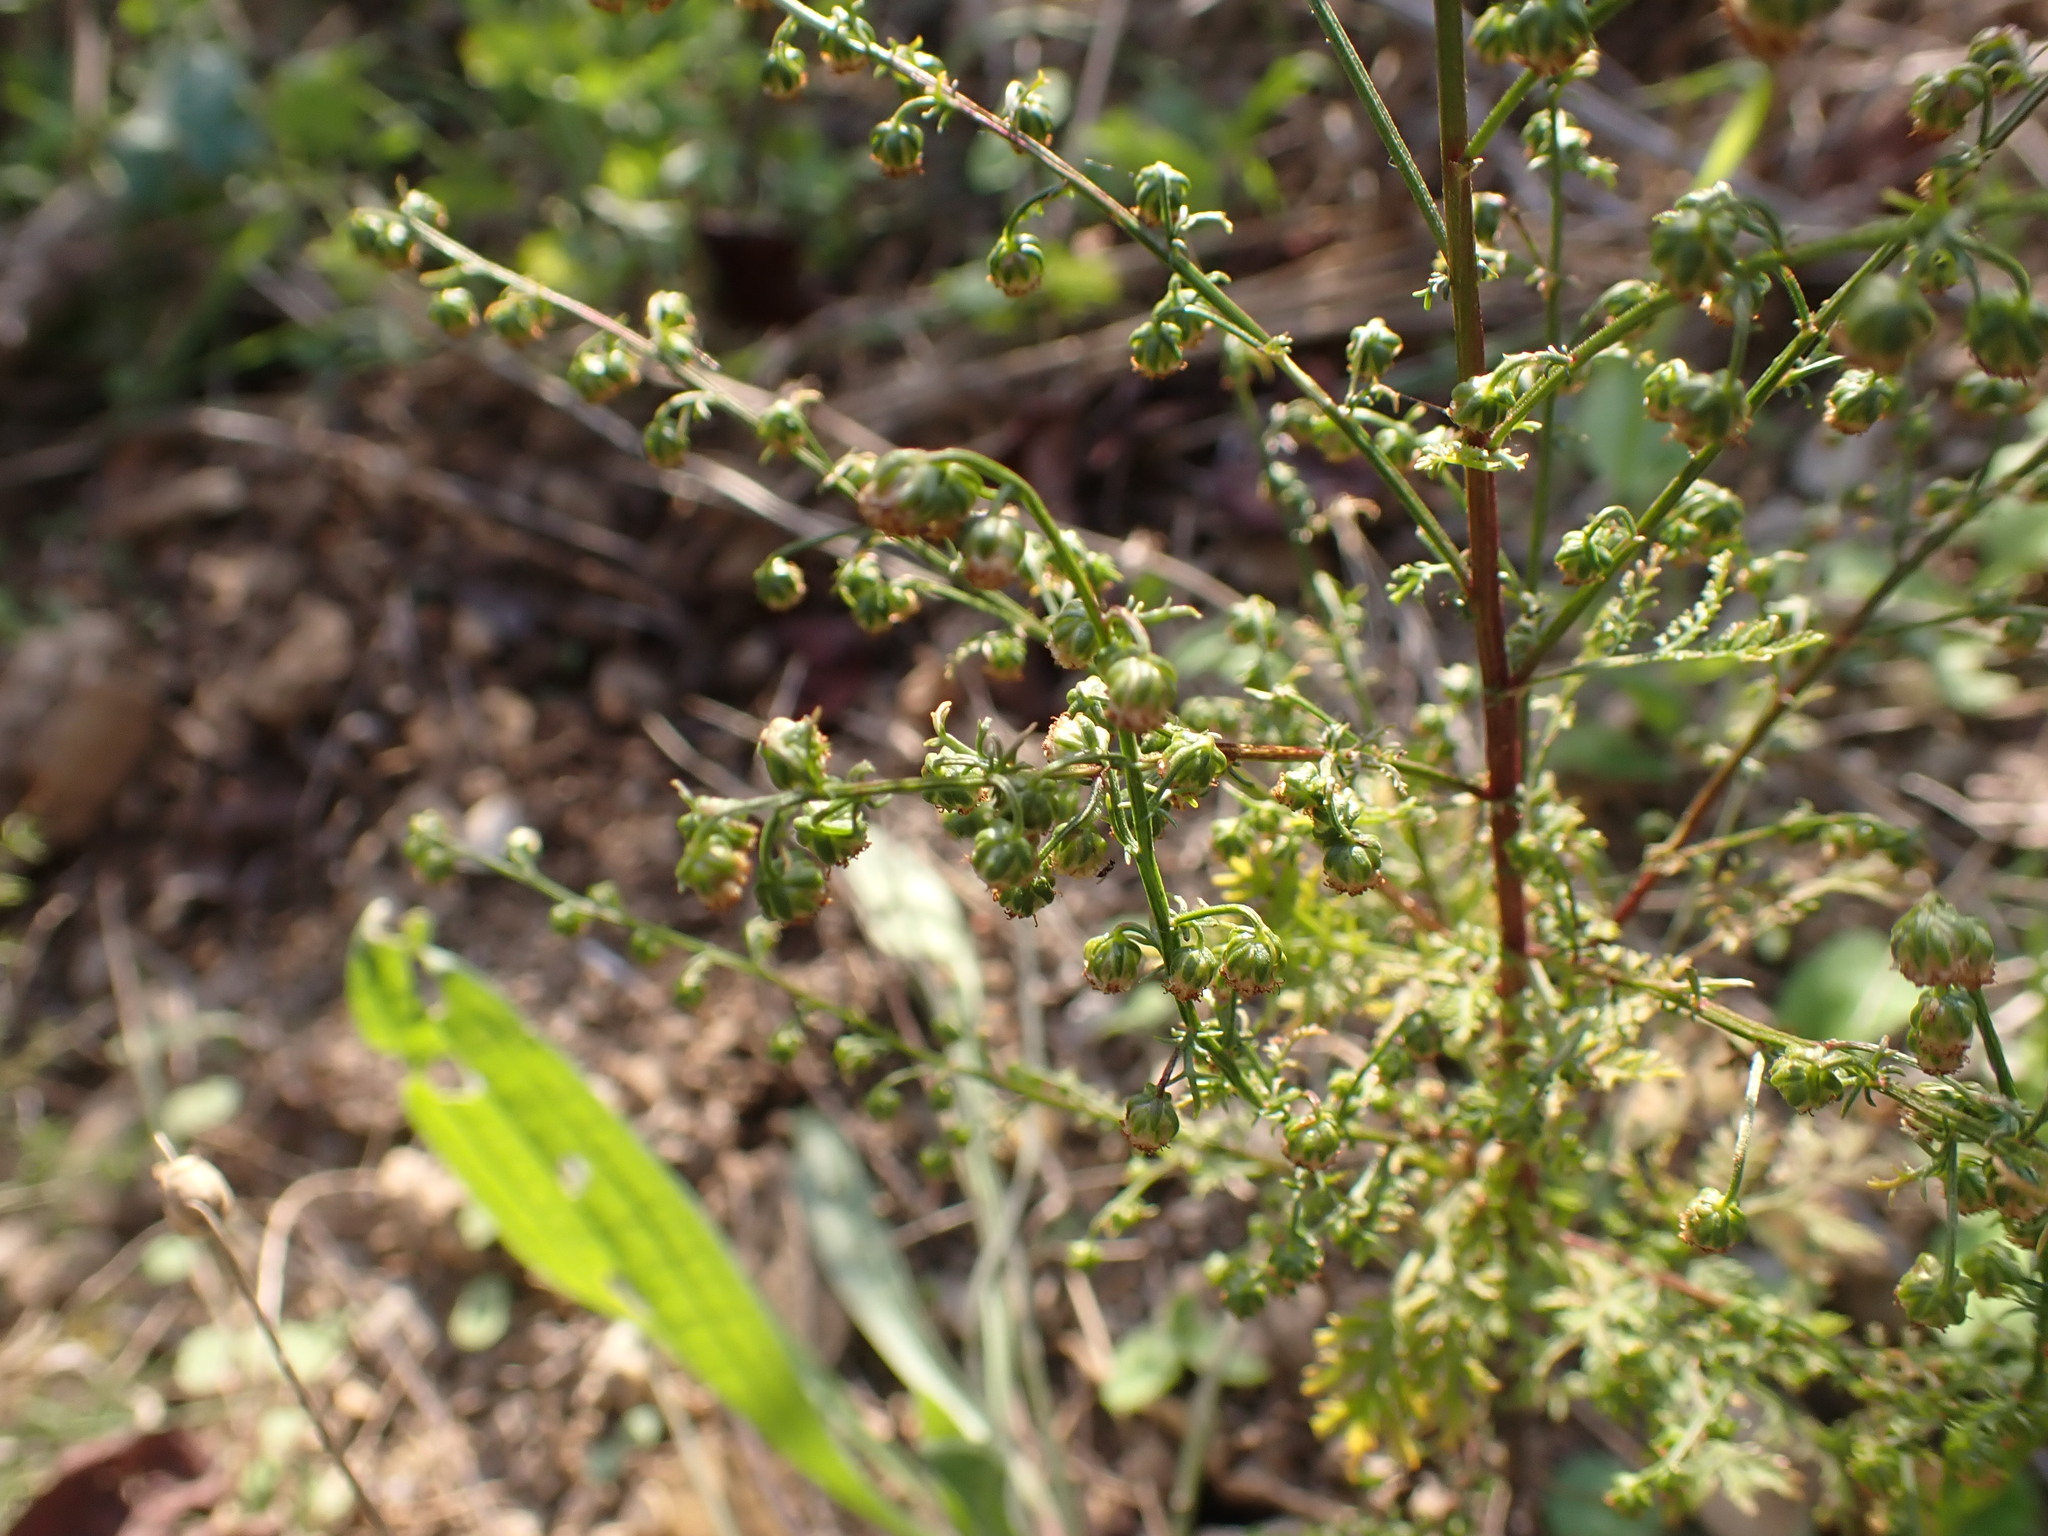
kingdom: Plantae
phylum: Tracheophyta
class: Magnoliopsida
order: Asterales
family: Asteraceae
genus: Artemisia
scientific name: Artemisia annua
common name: Sweet sagewort
